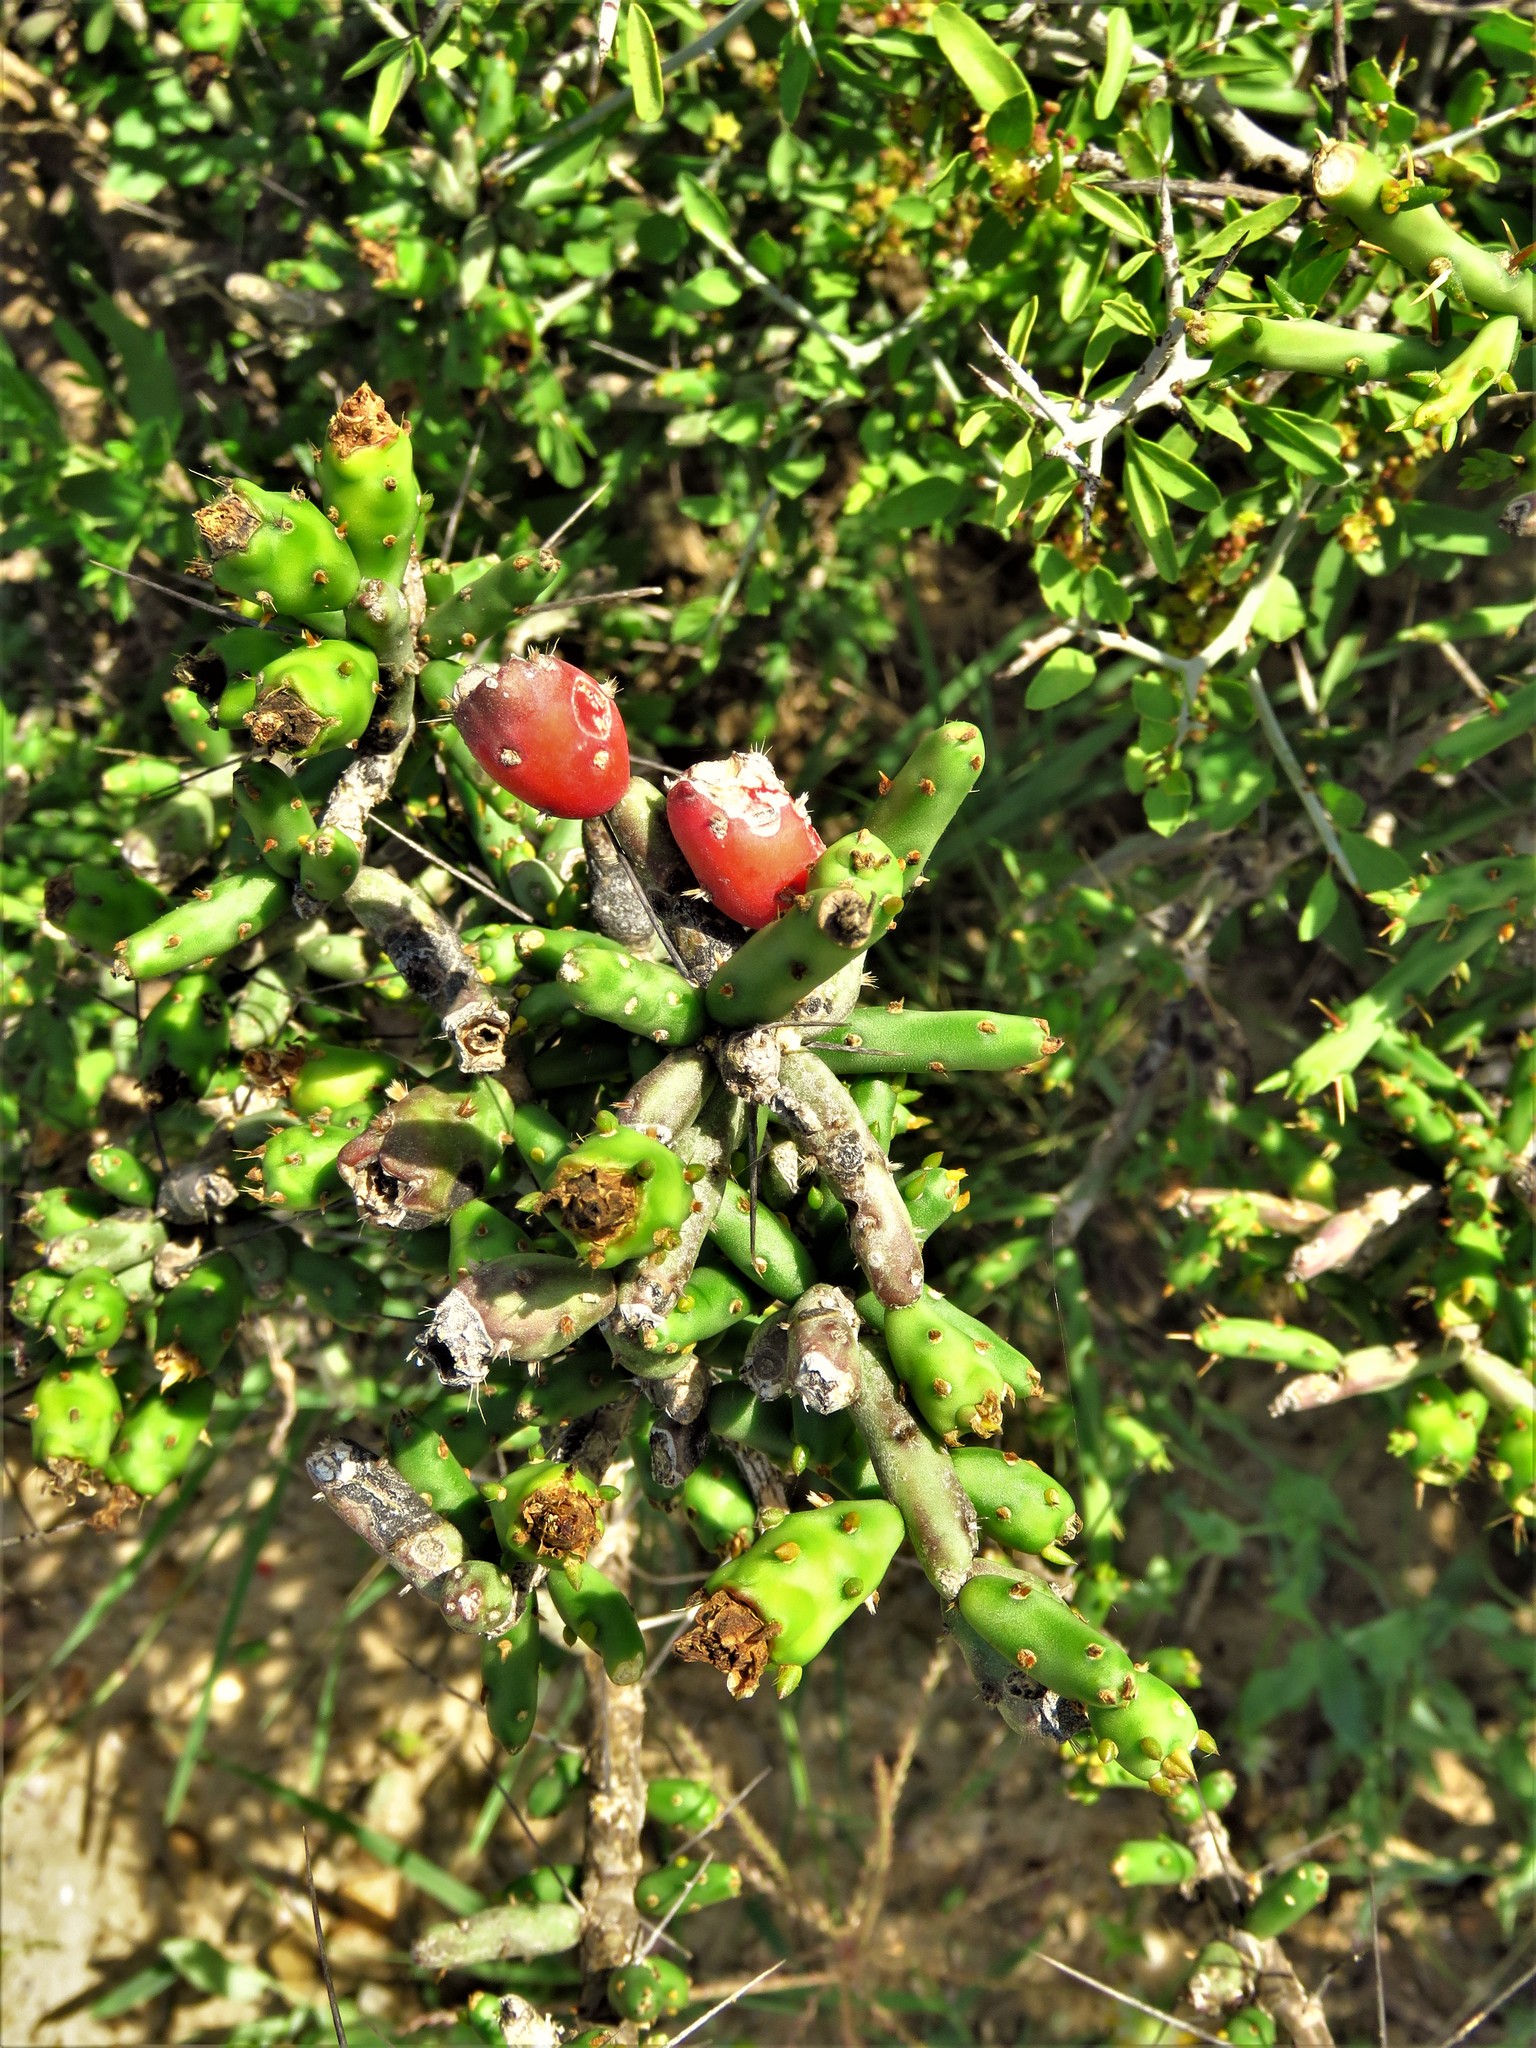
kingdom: Plantae
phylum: Tracheophyta
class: Magnoliopsida
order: Caryophyllales
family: Cactaceae
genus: Cylindropuntia
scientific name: Cylindropuntia leptocaulis
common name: Christmas cactus
